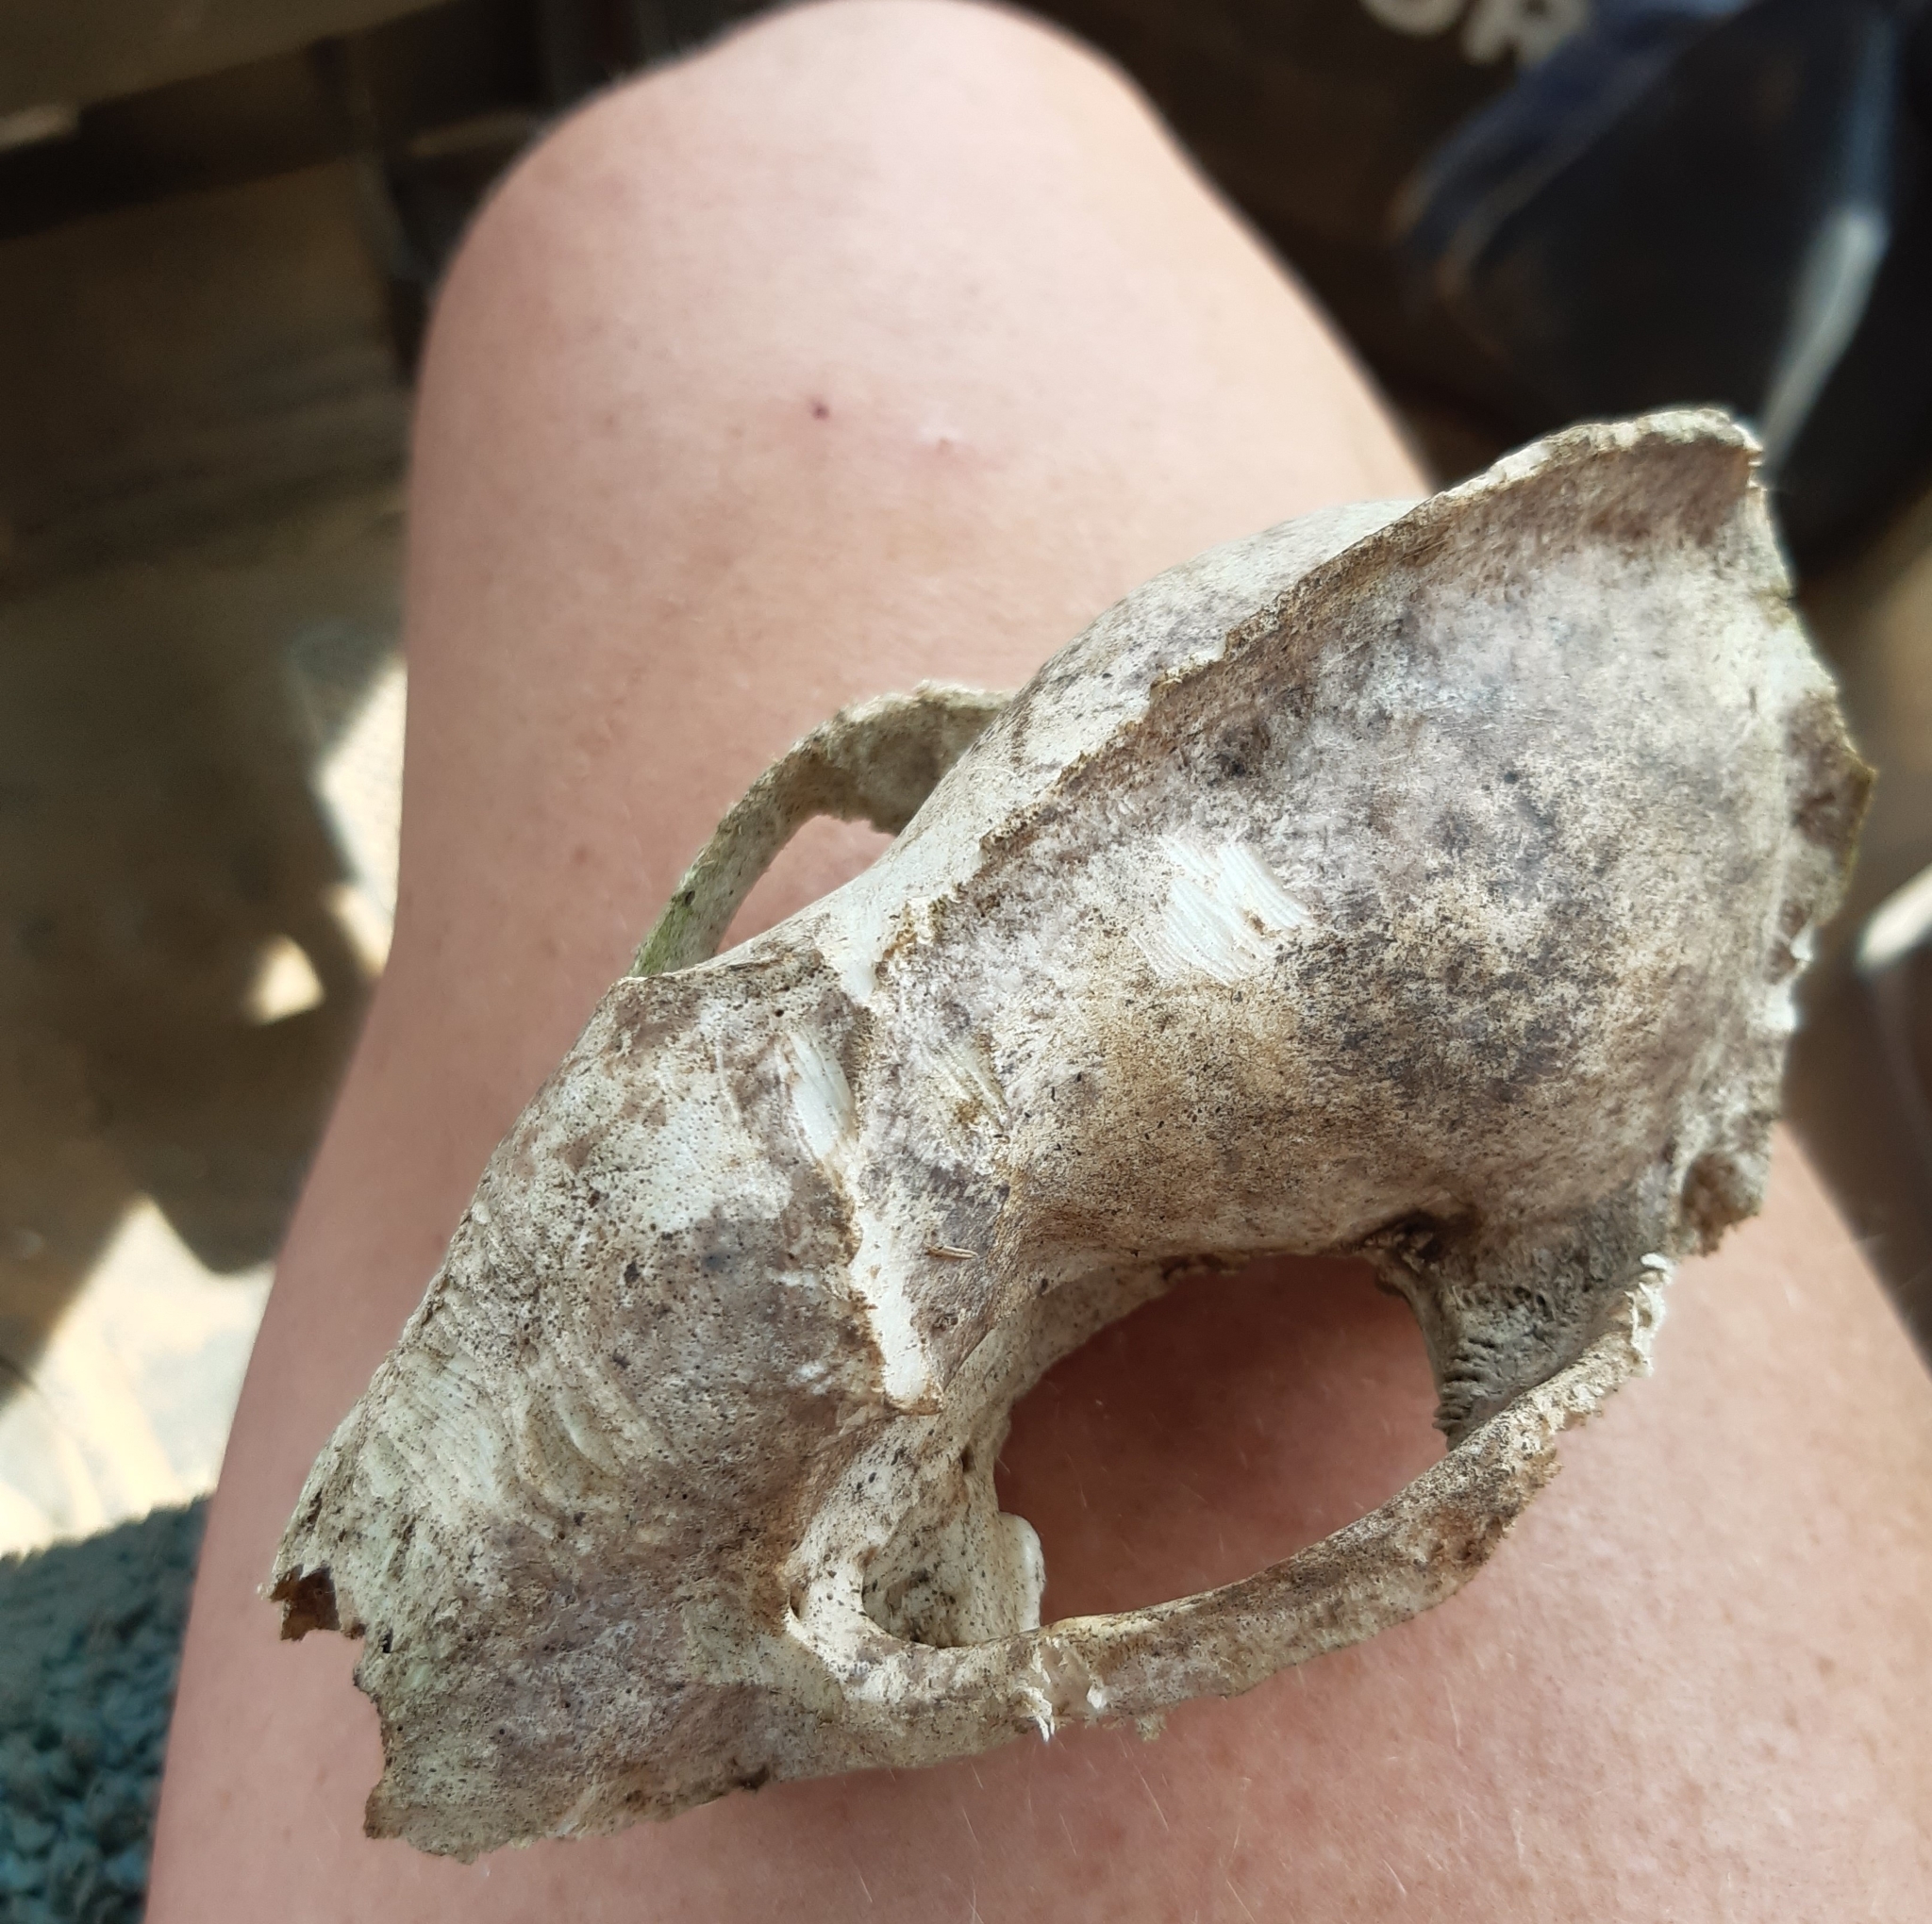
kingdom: Animalia
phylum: Chordata
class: Mammalia
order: Carnivora
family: Mustelidae
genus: Meles
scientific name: Meles meles
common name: Eurasian badger
